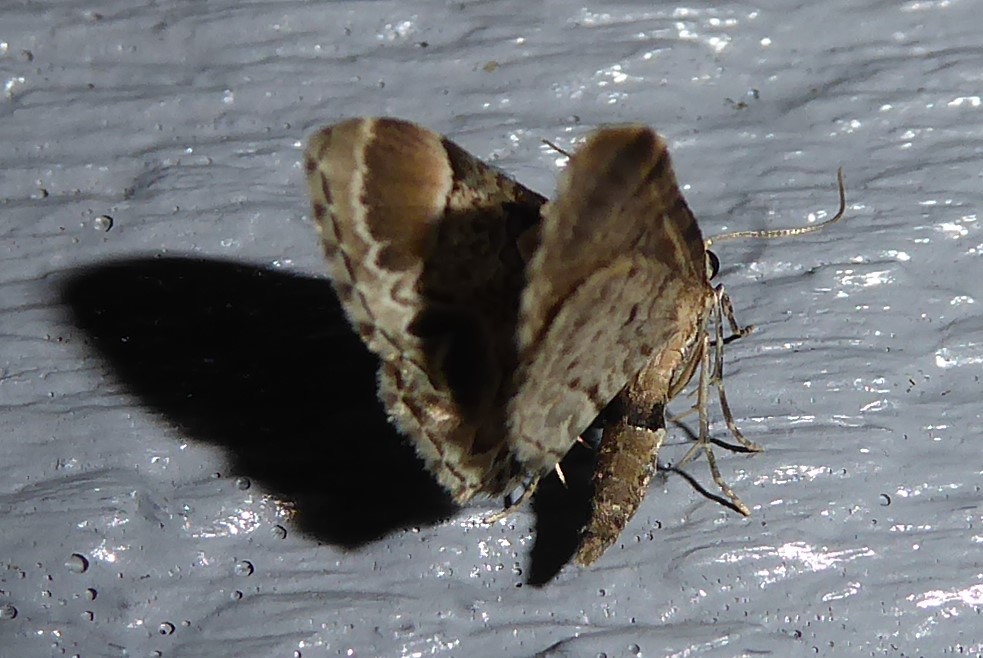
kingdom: Animalia
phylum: Arthropoda
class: Insecta
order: Lepidoptera
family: Geometridae
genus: Chloroclystis
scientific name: Chloroclystis
